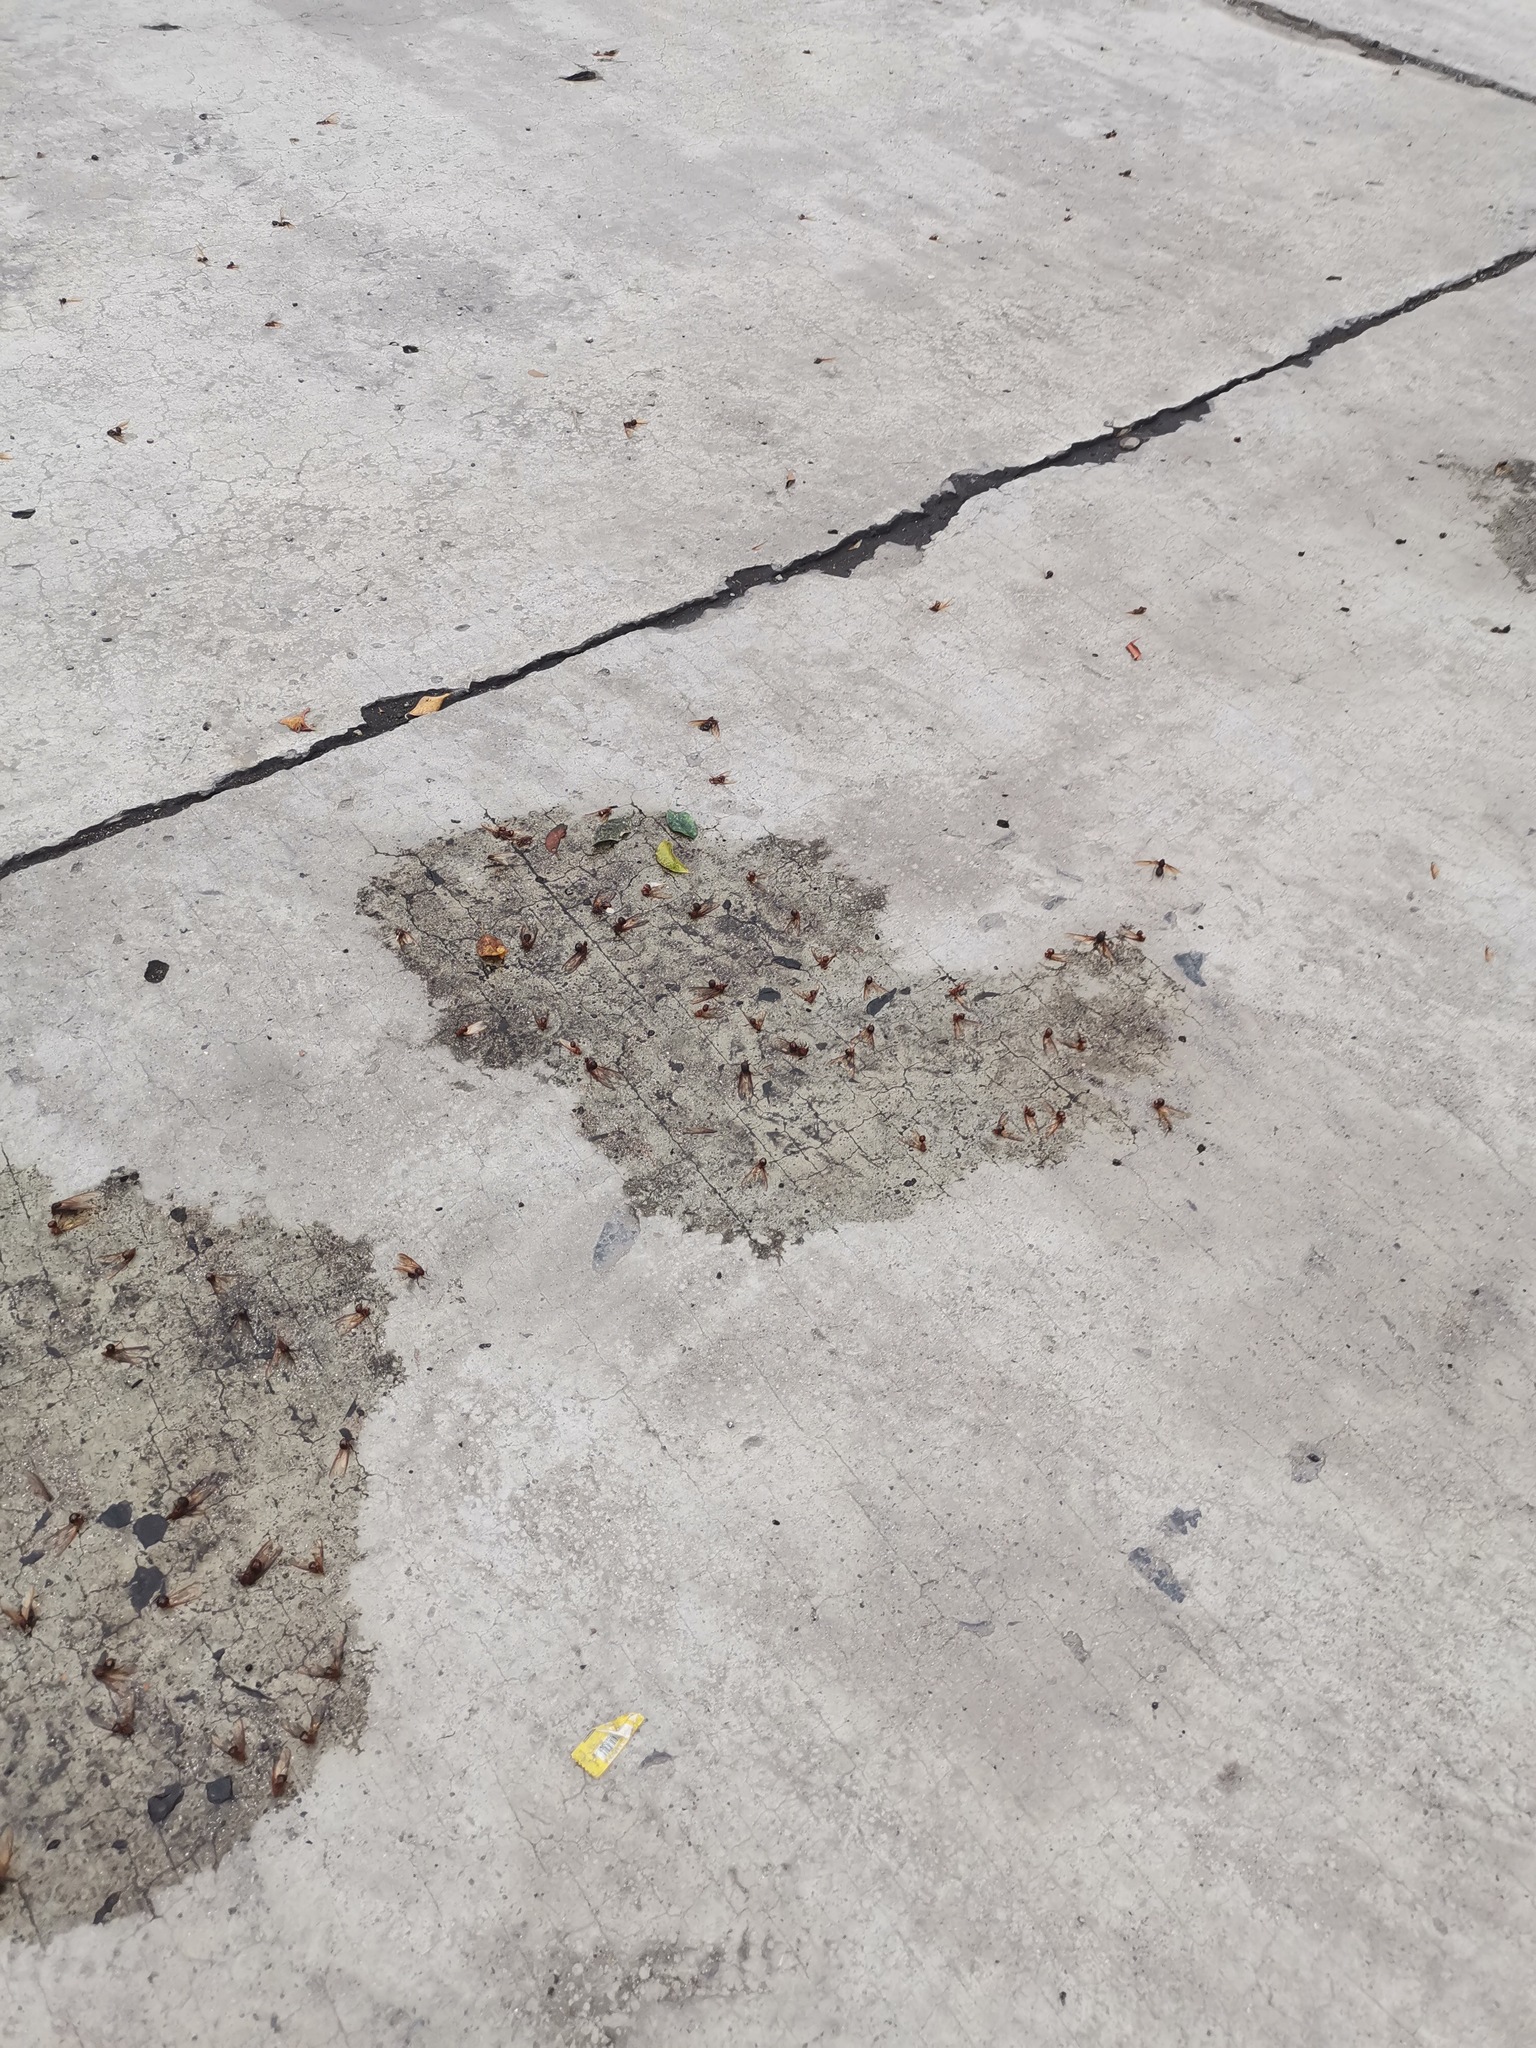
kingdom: Animalia
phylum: Arthropoda
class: Insecta
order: Hymenoptera
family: Formicidae
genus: Atta
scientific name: Atta mexicana
